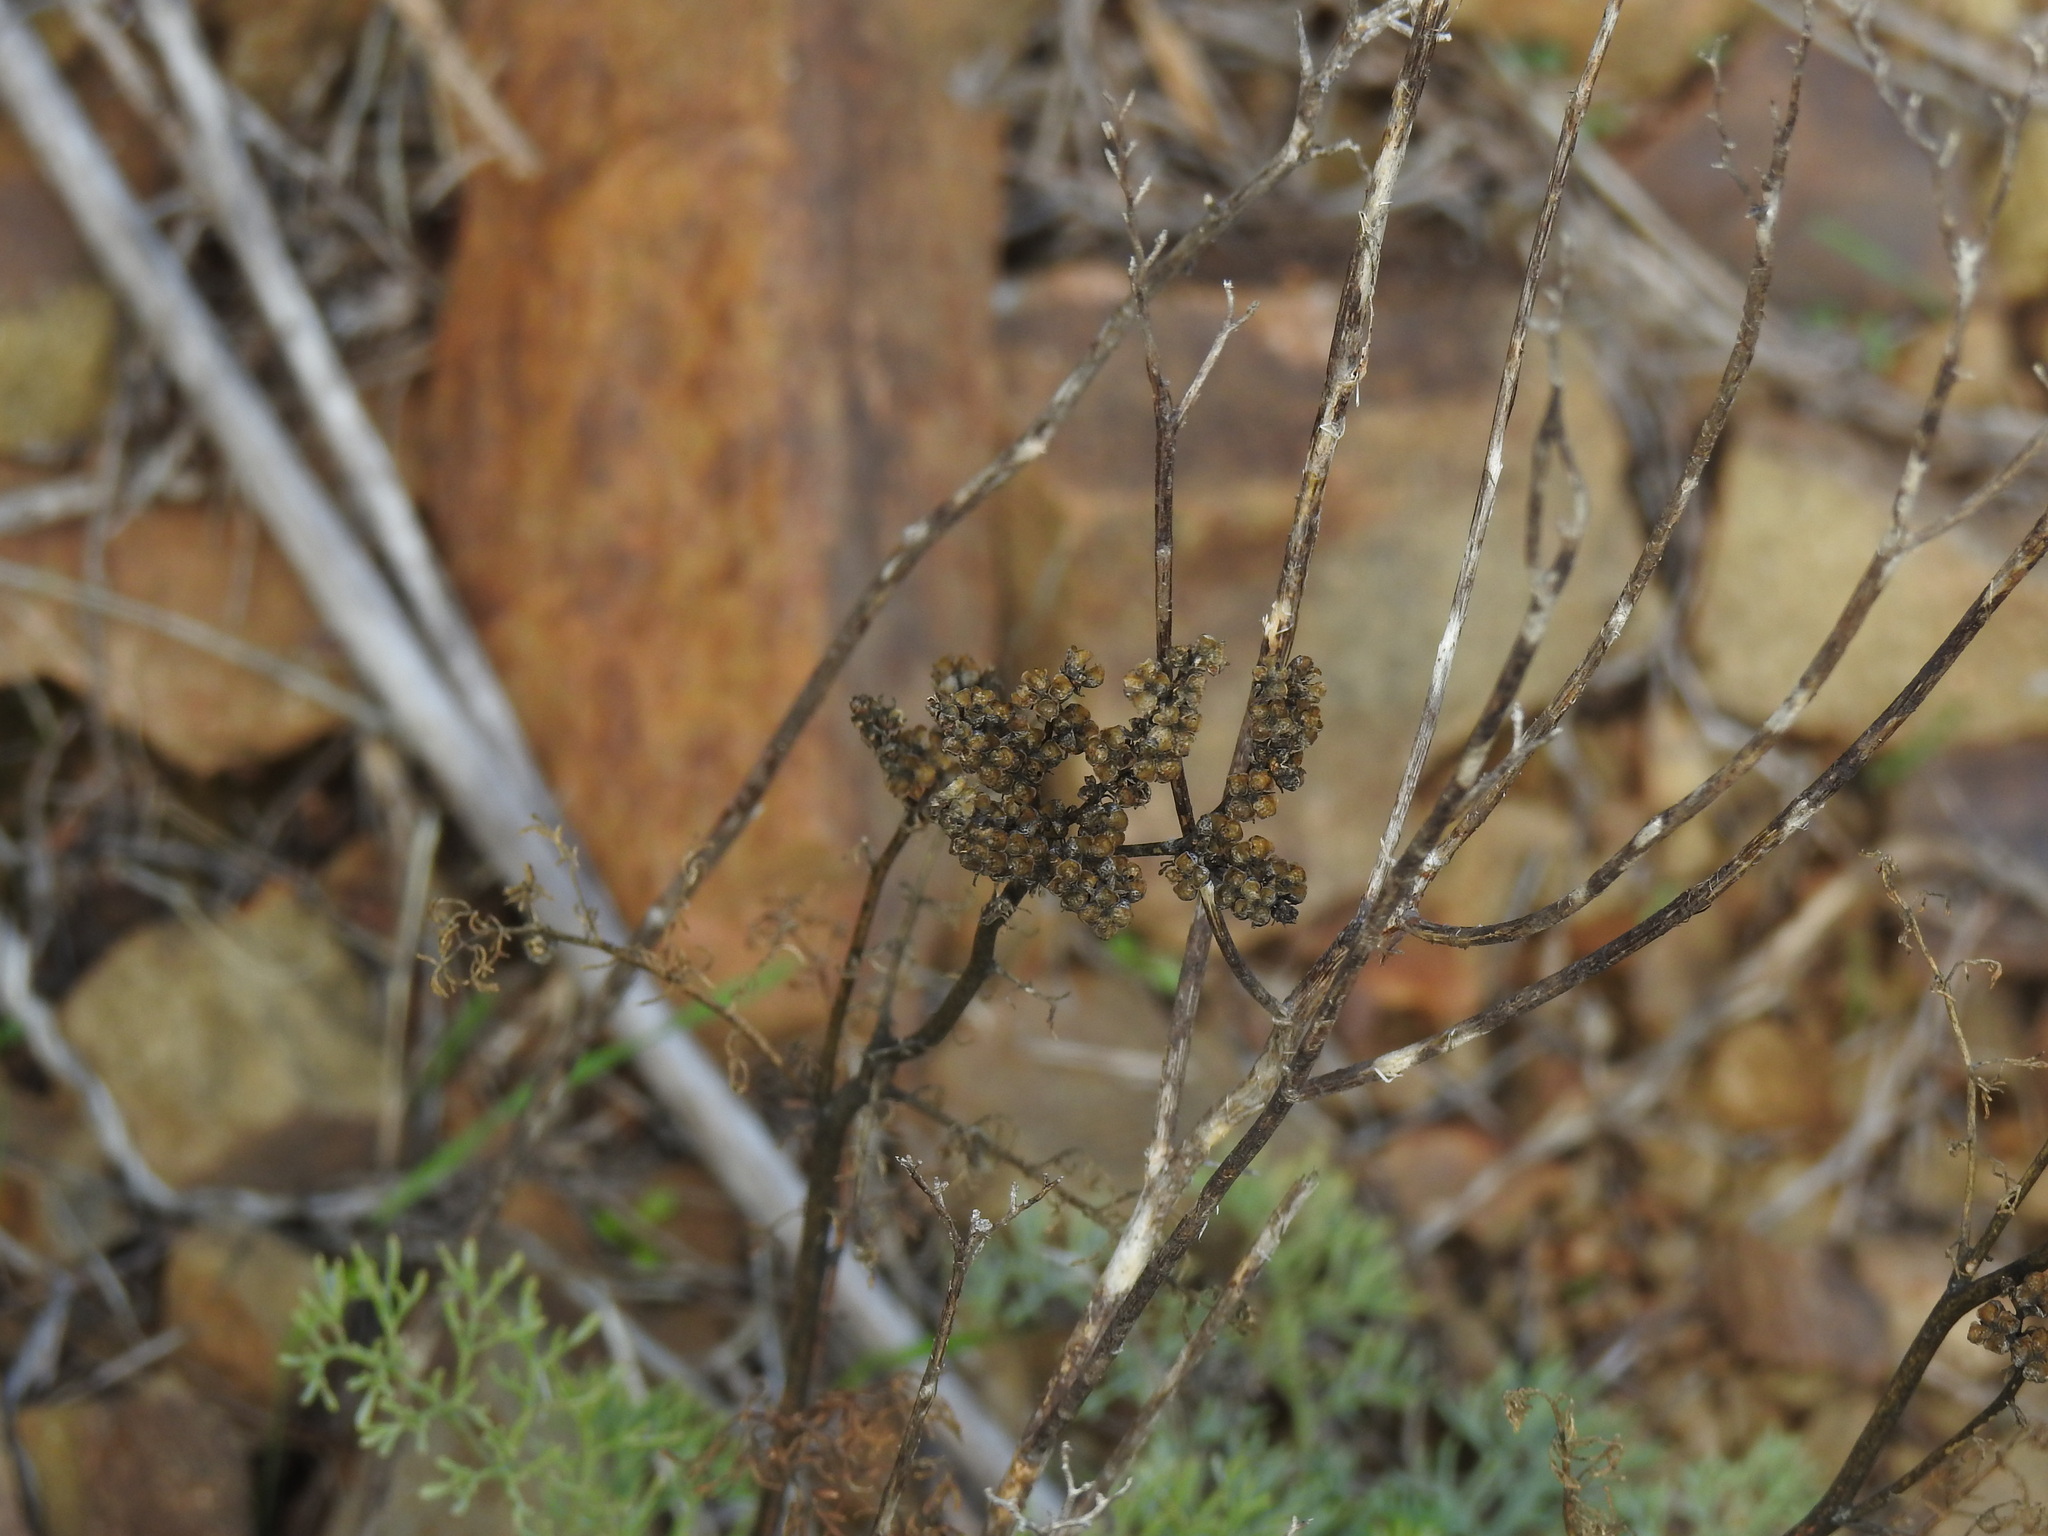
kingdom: Plantae
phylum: Tracheophyta
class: Magnoliopsida
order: Sapindales
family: Rutaceae
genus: Ruta
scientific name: Ruta montana
